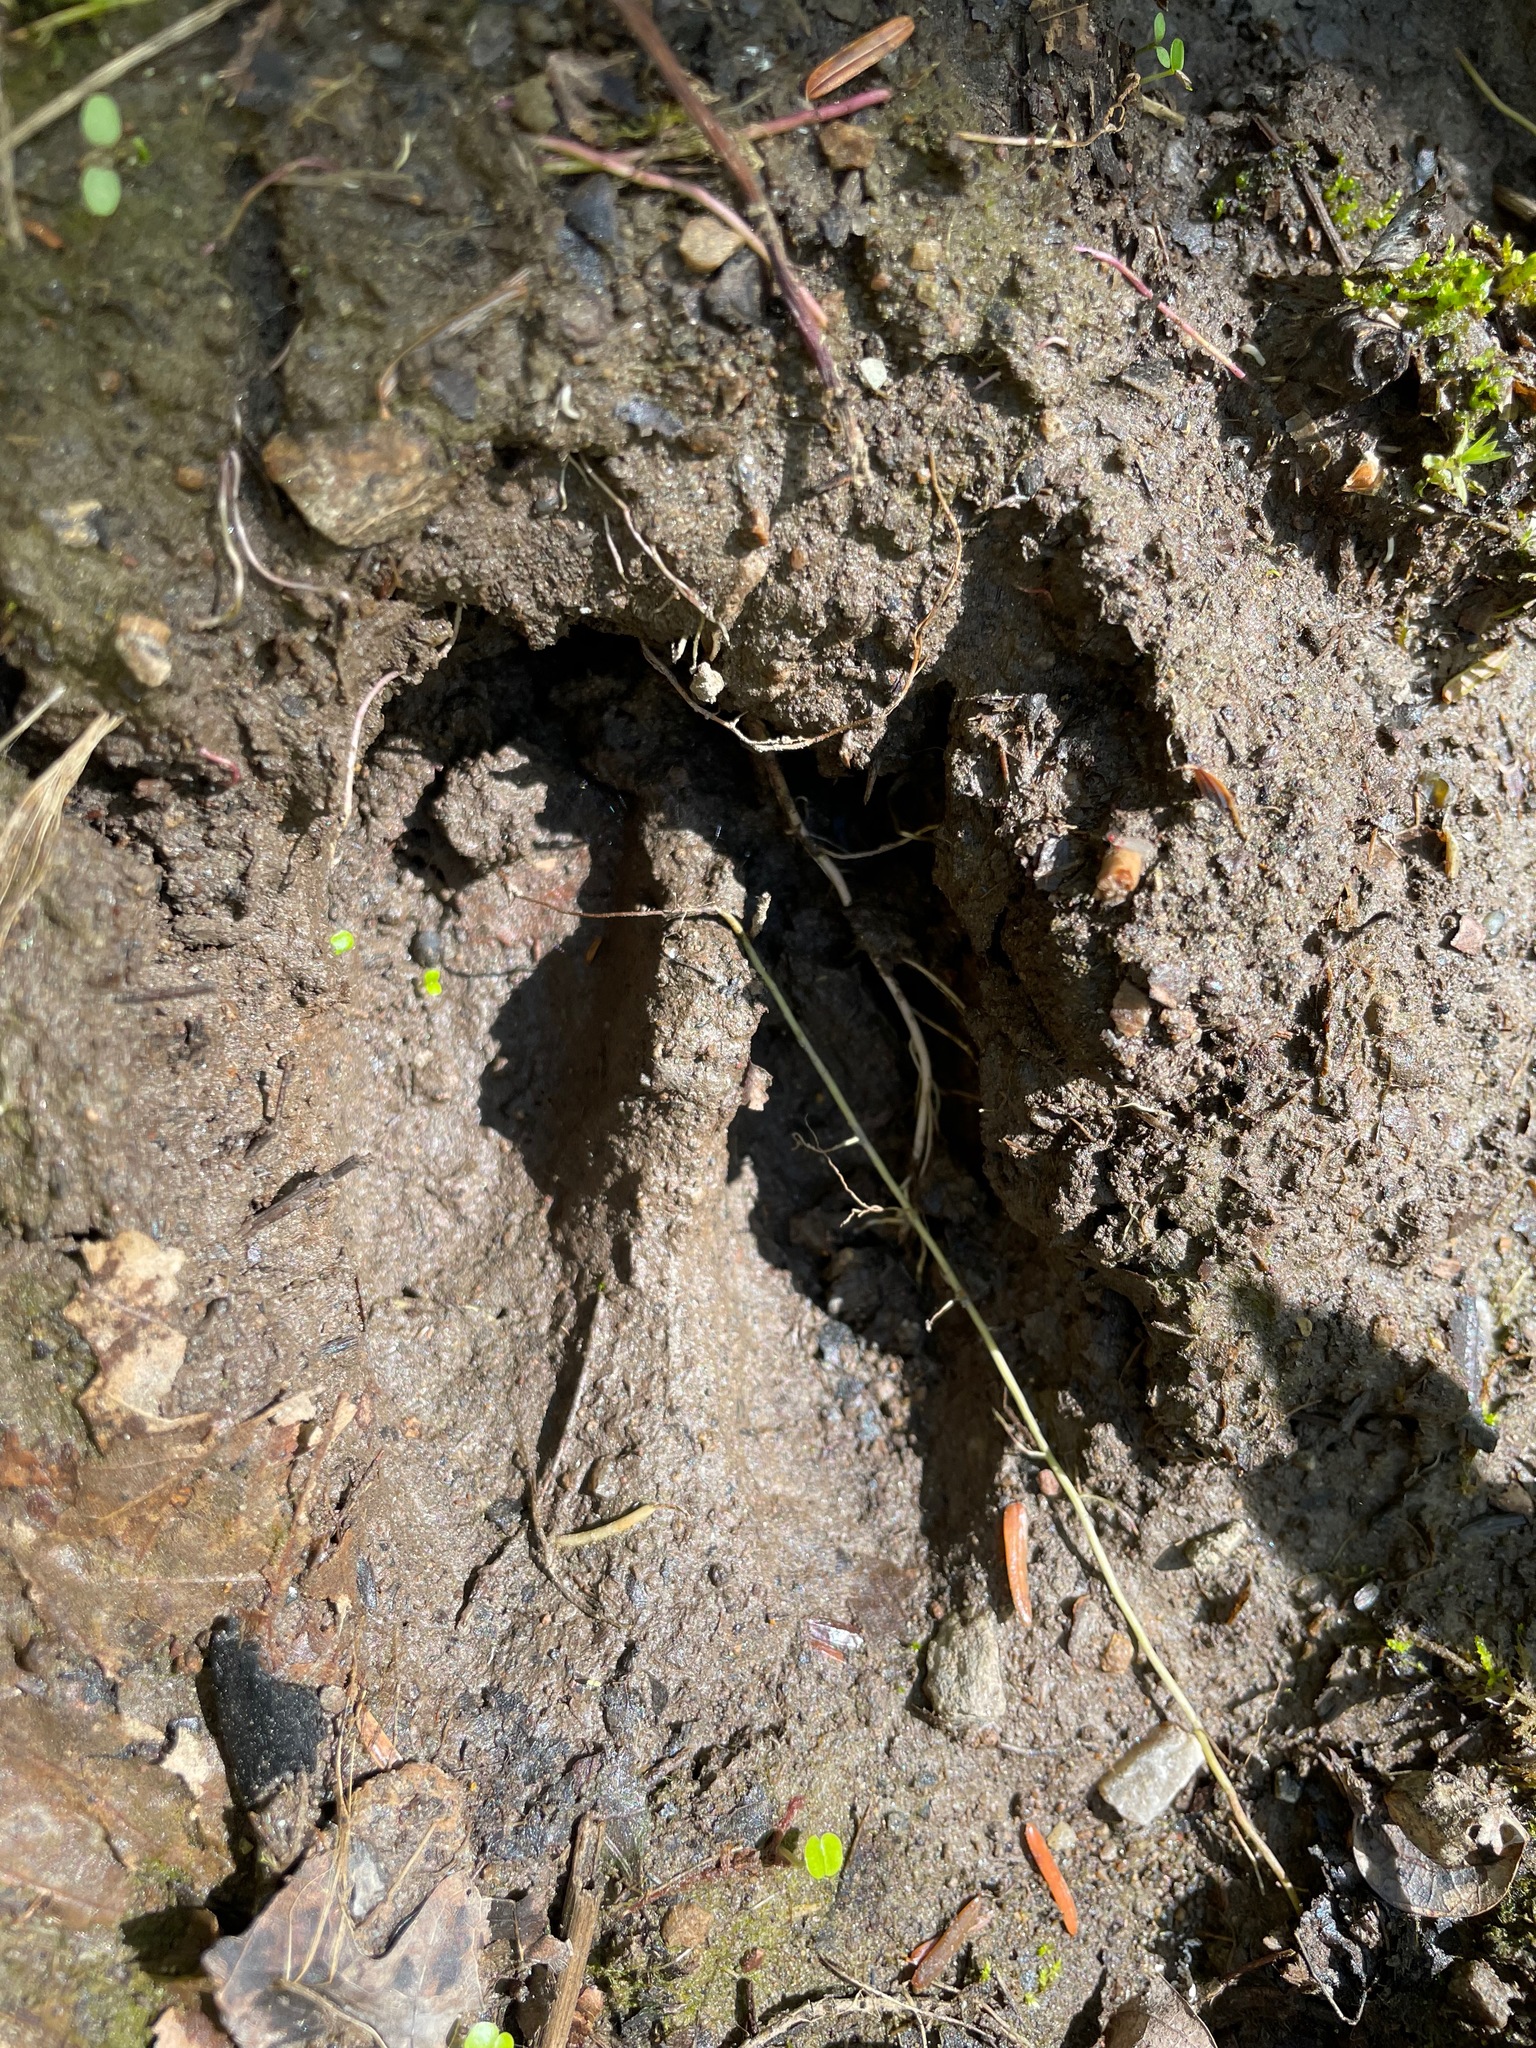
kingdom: Animalia
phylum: Chordata
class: Mammalia
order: Artiodactyla
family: Cervidae
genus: Odocoileus
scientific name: Odocoileus virginianus
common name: White-tailed deer
